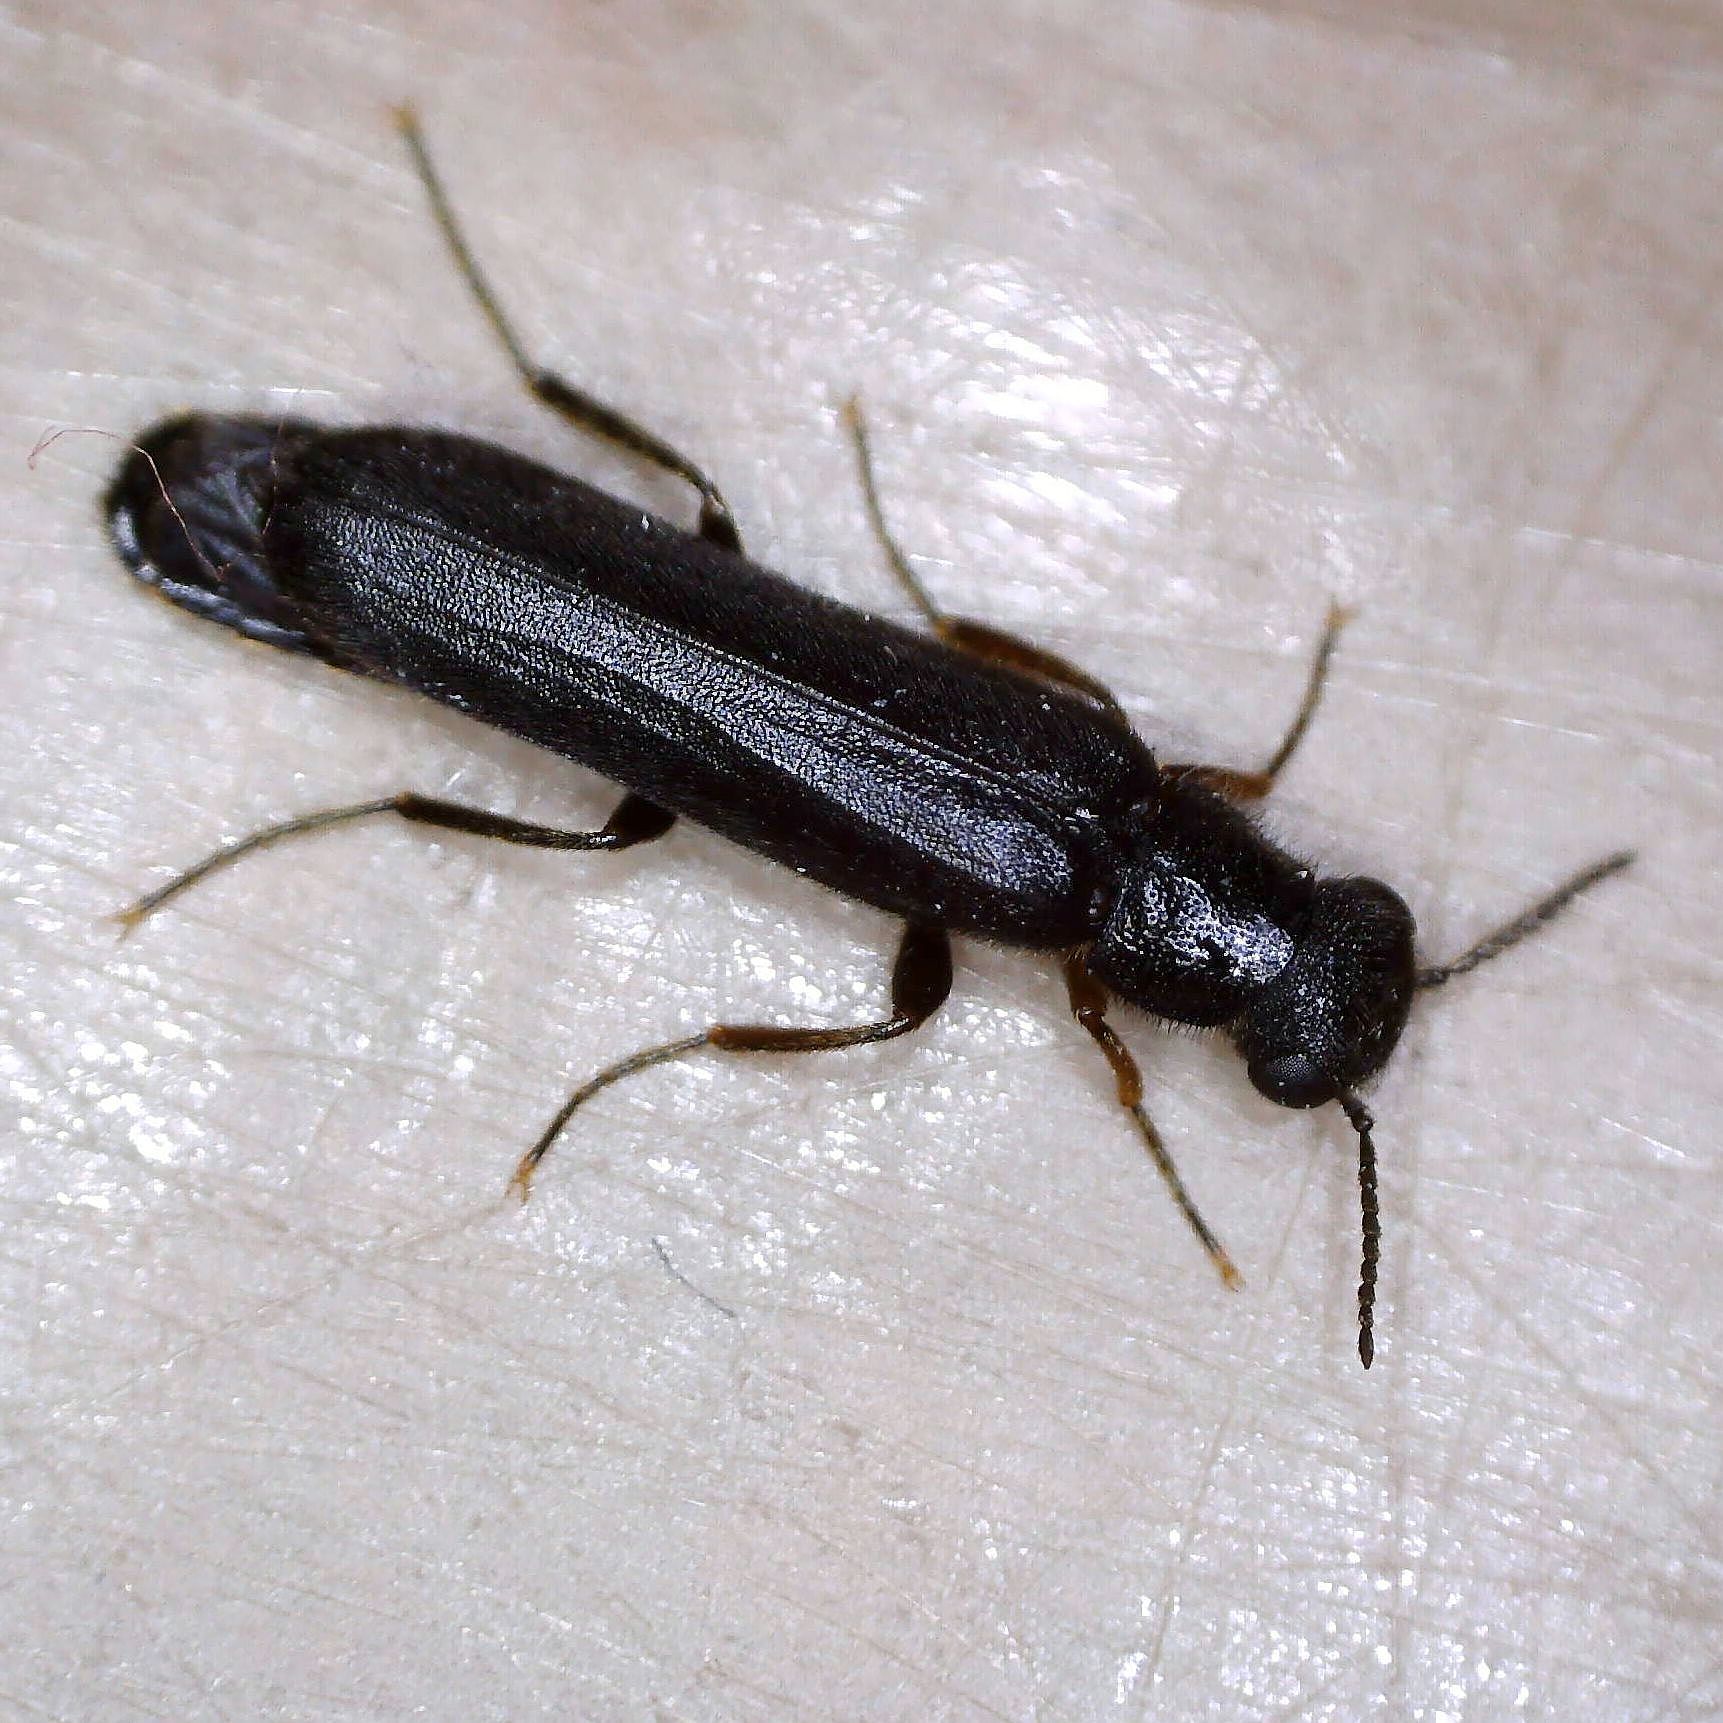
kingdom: Animalia
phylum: Arthropoda
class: Insecta
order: Coleoptera
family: Lymexylidae
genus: Hylecoetus
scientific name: Hylecoetus dermestoides
